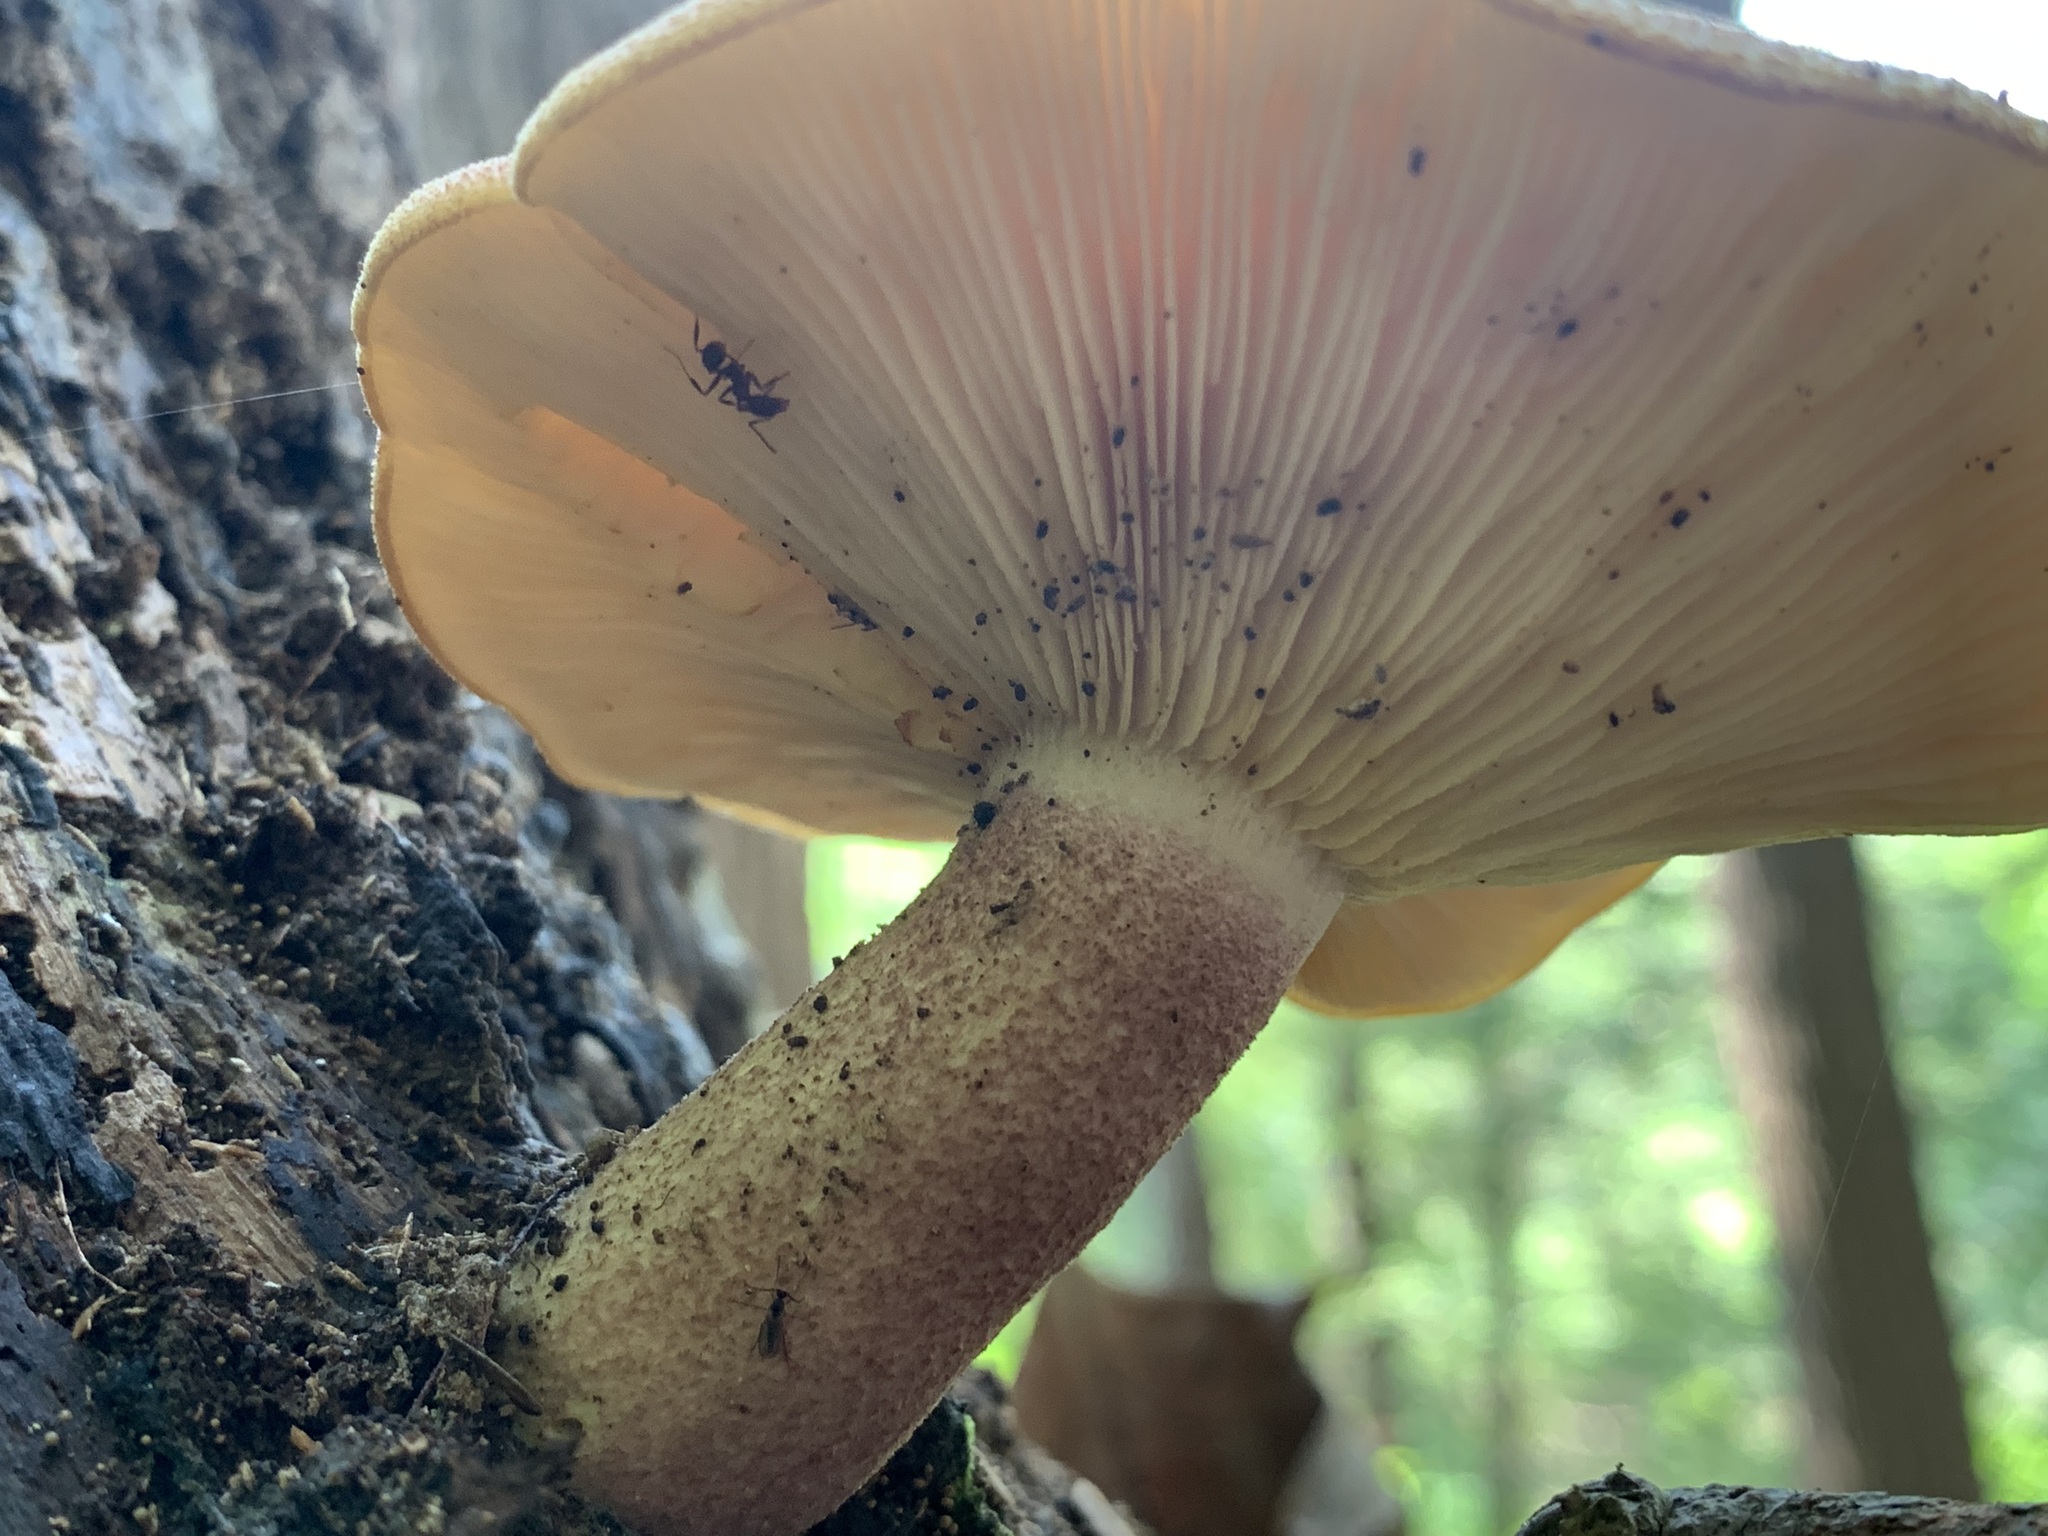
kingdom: Fungi
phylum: Basidiomycota
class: Agaricomycetes
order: Agaricales
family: Tricholomataceae
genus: Tricholomopsis
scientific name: Tricholomopsis rutilans
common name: Plums and custard
